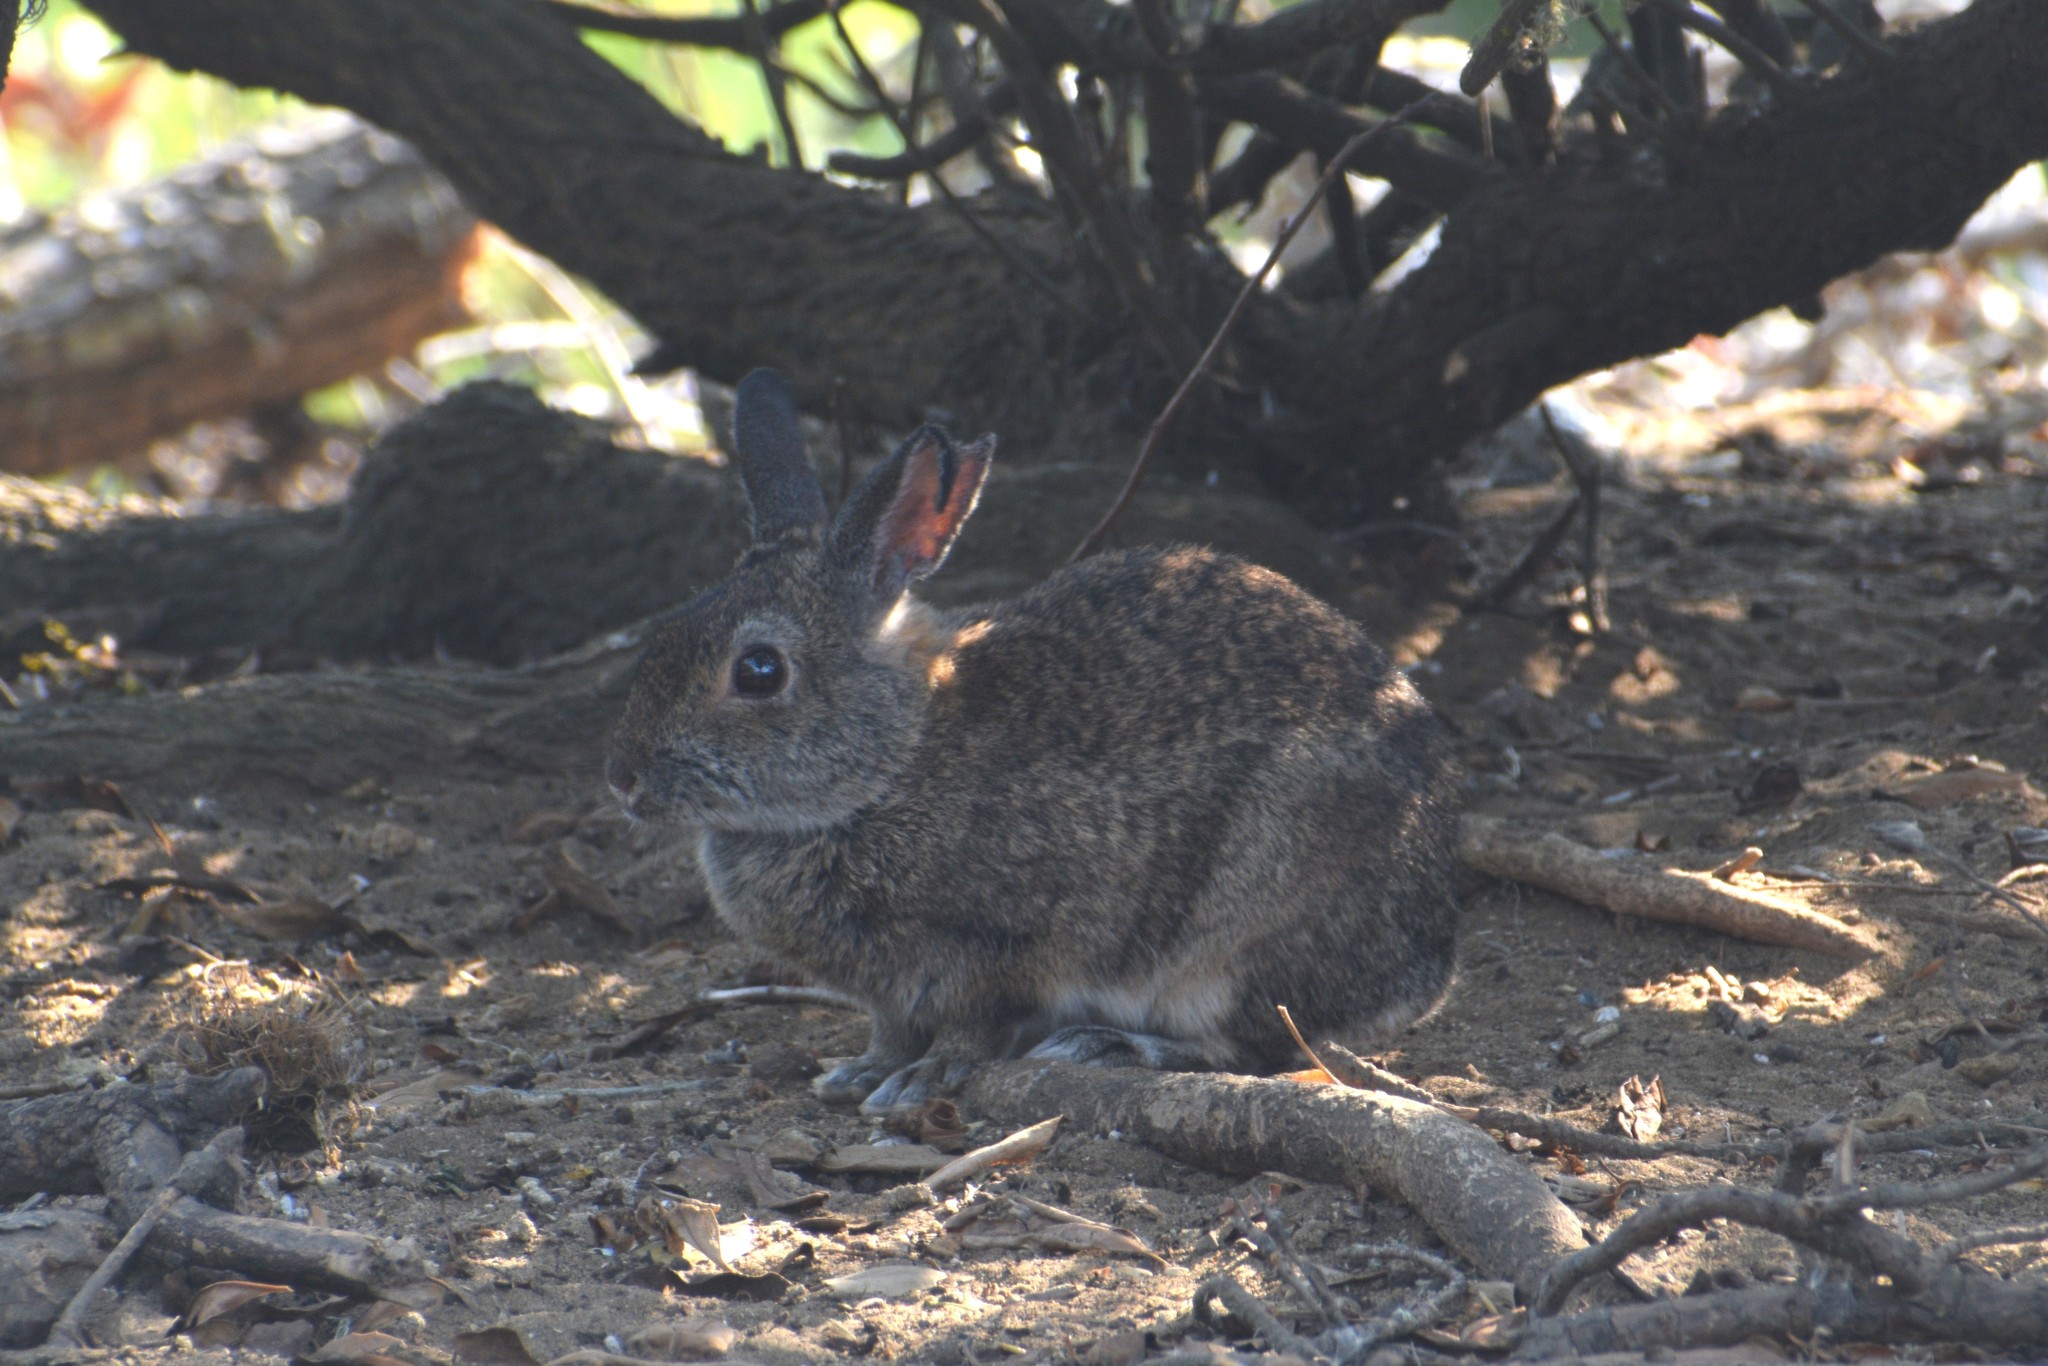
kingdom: Animalia
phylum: Chordata
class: Mammalia
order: Lagomorpha
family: Leporidae
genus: Sylvilagus
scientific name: Sylvilagus bachmani
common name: Brush rabbit
